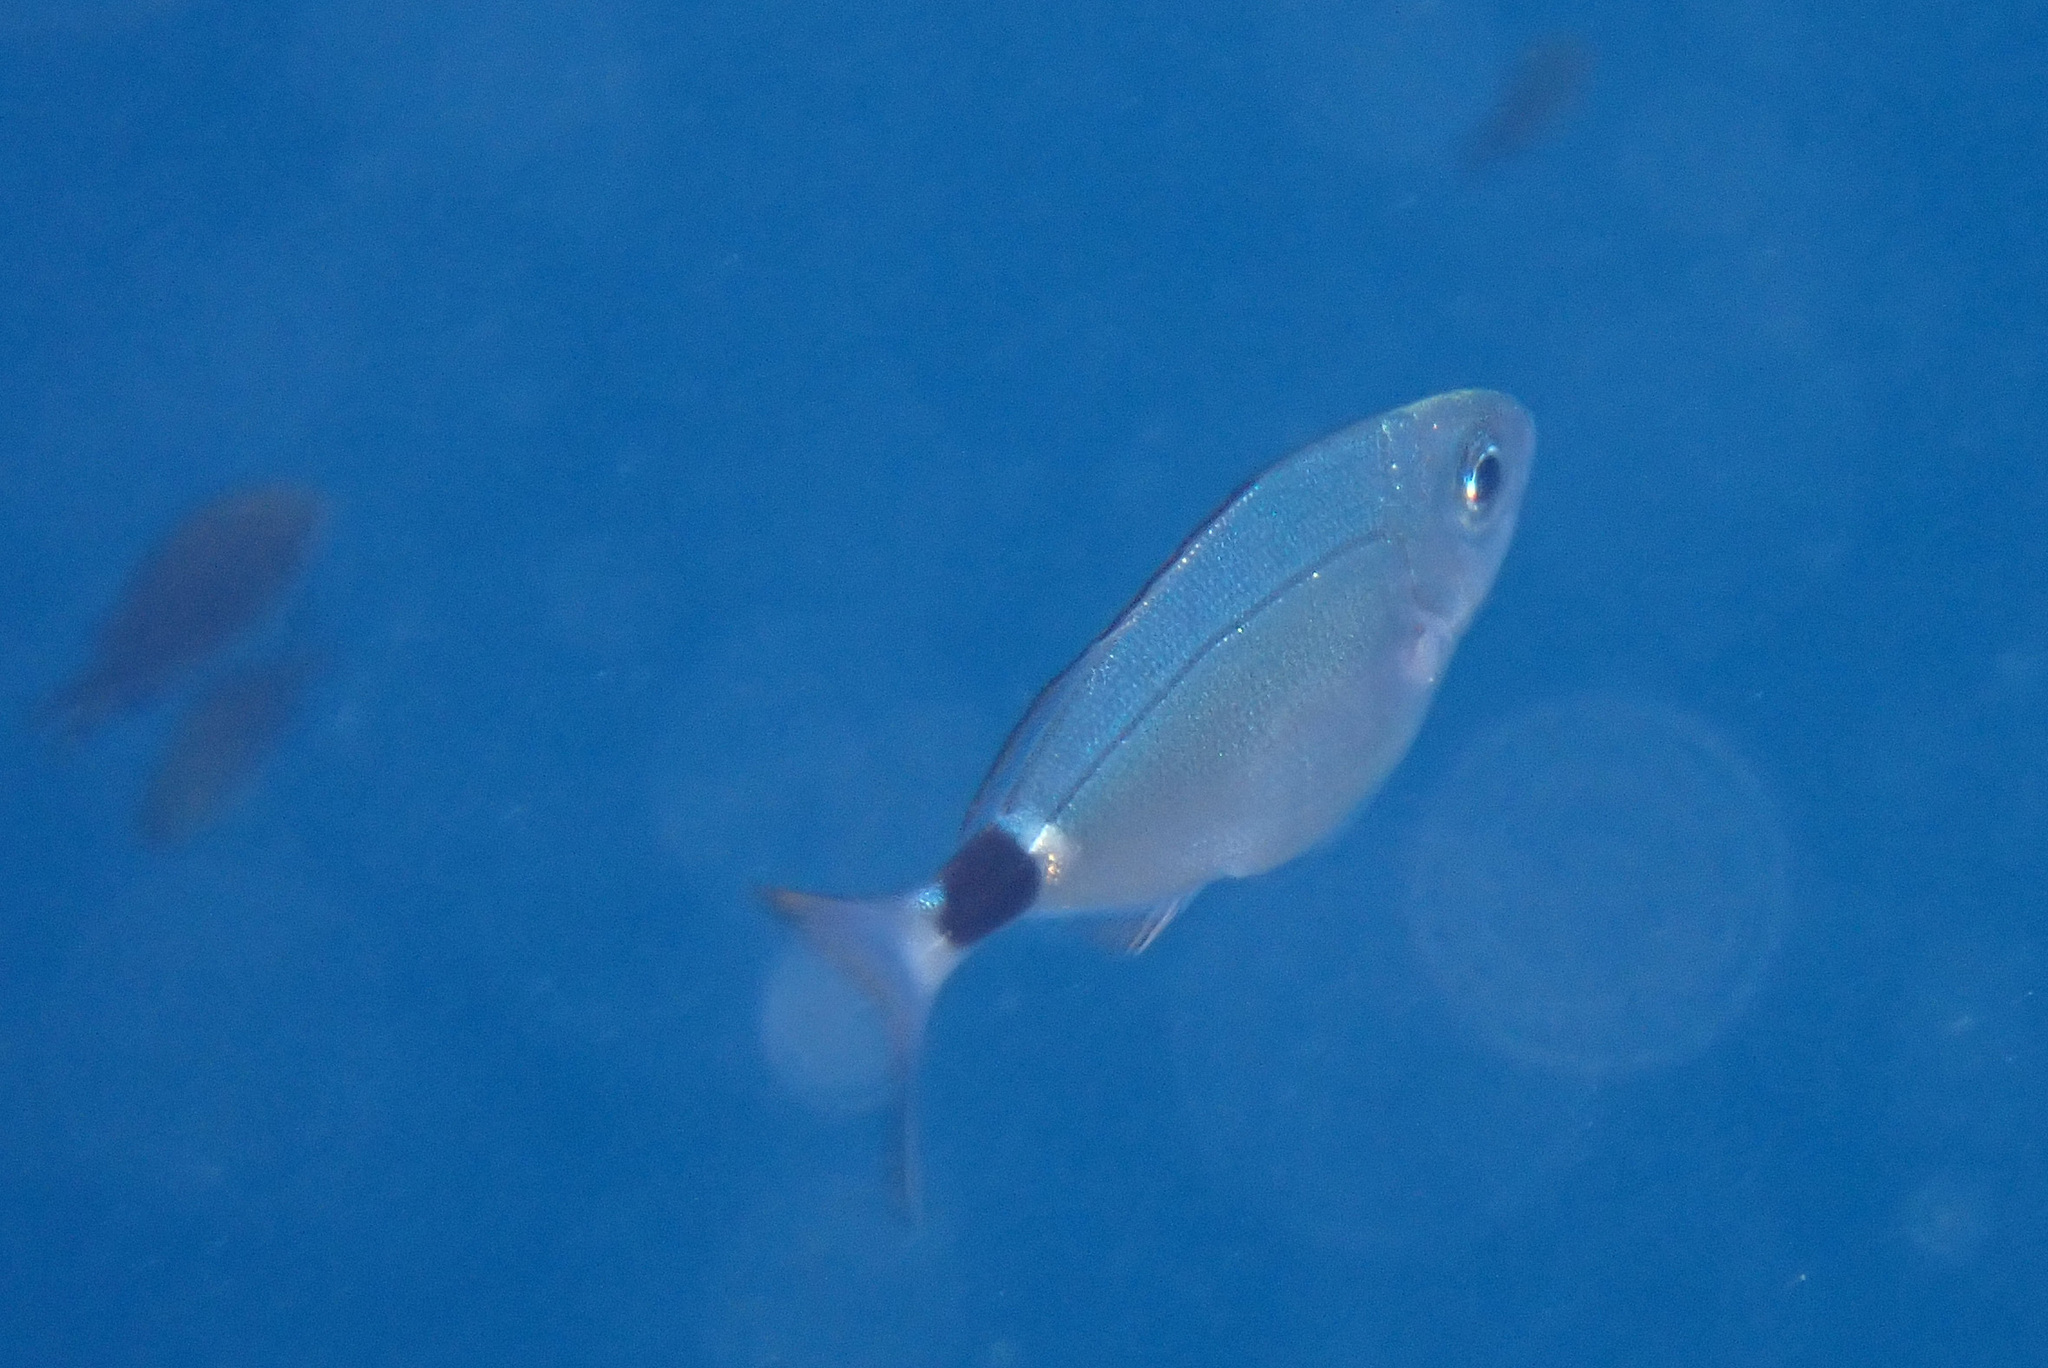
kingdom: Animalia
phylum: Chordata
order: Perciformes
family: Sparidae
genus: Oblada
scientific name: Oblada melanura
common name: Saddled seabream
